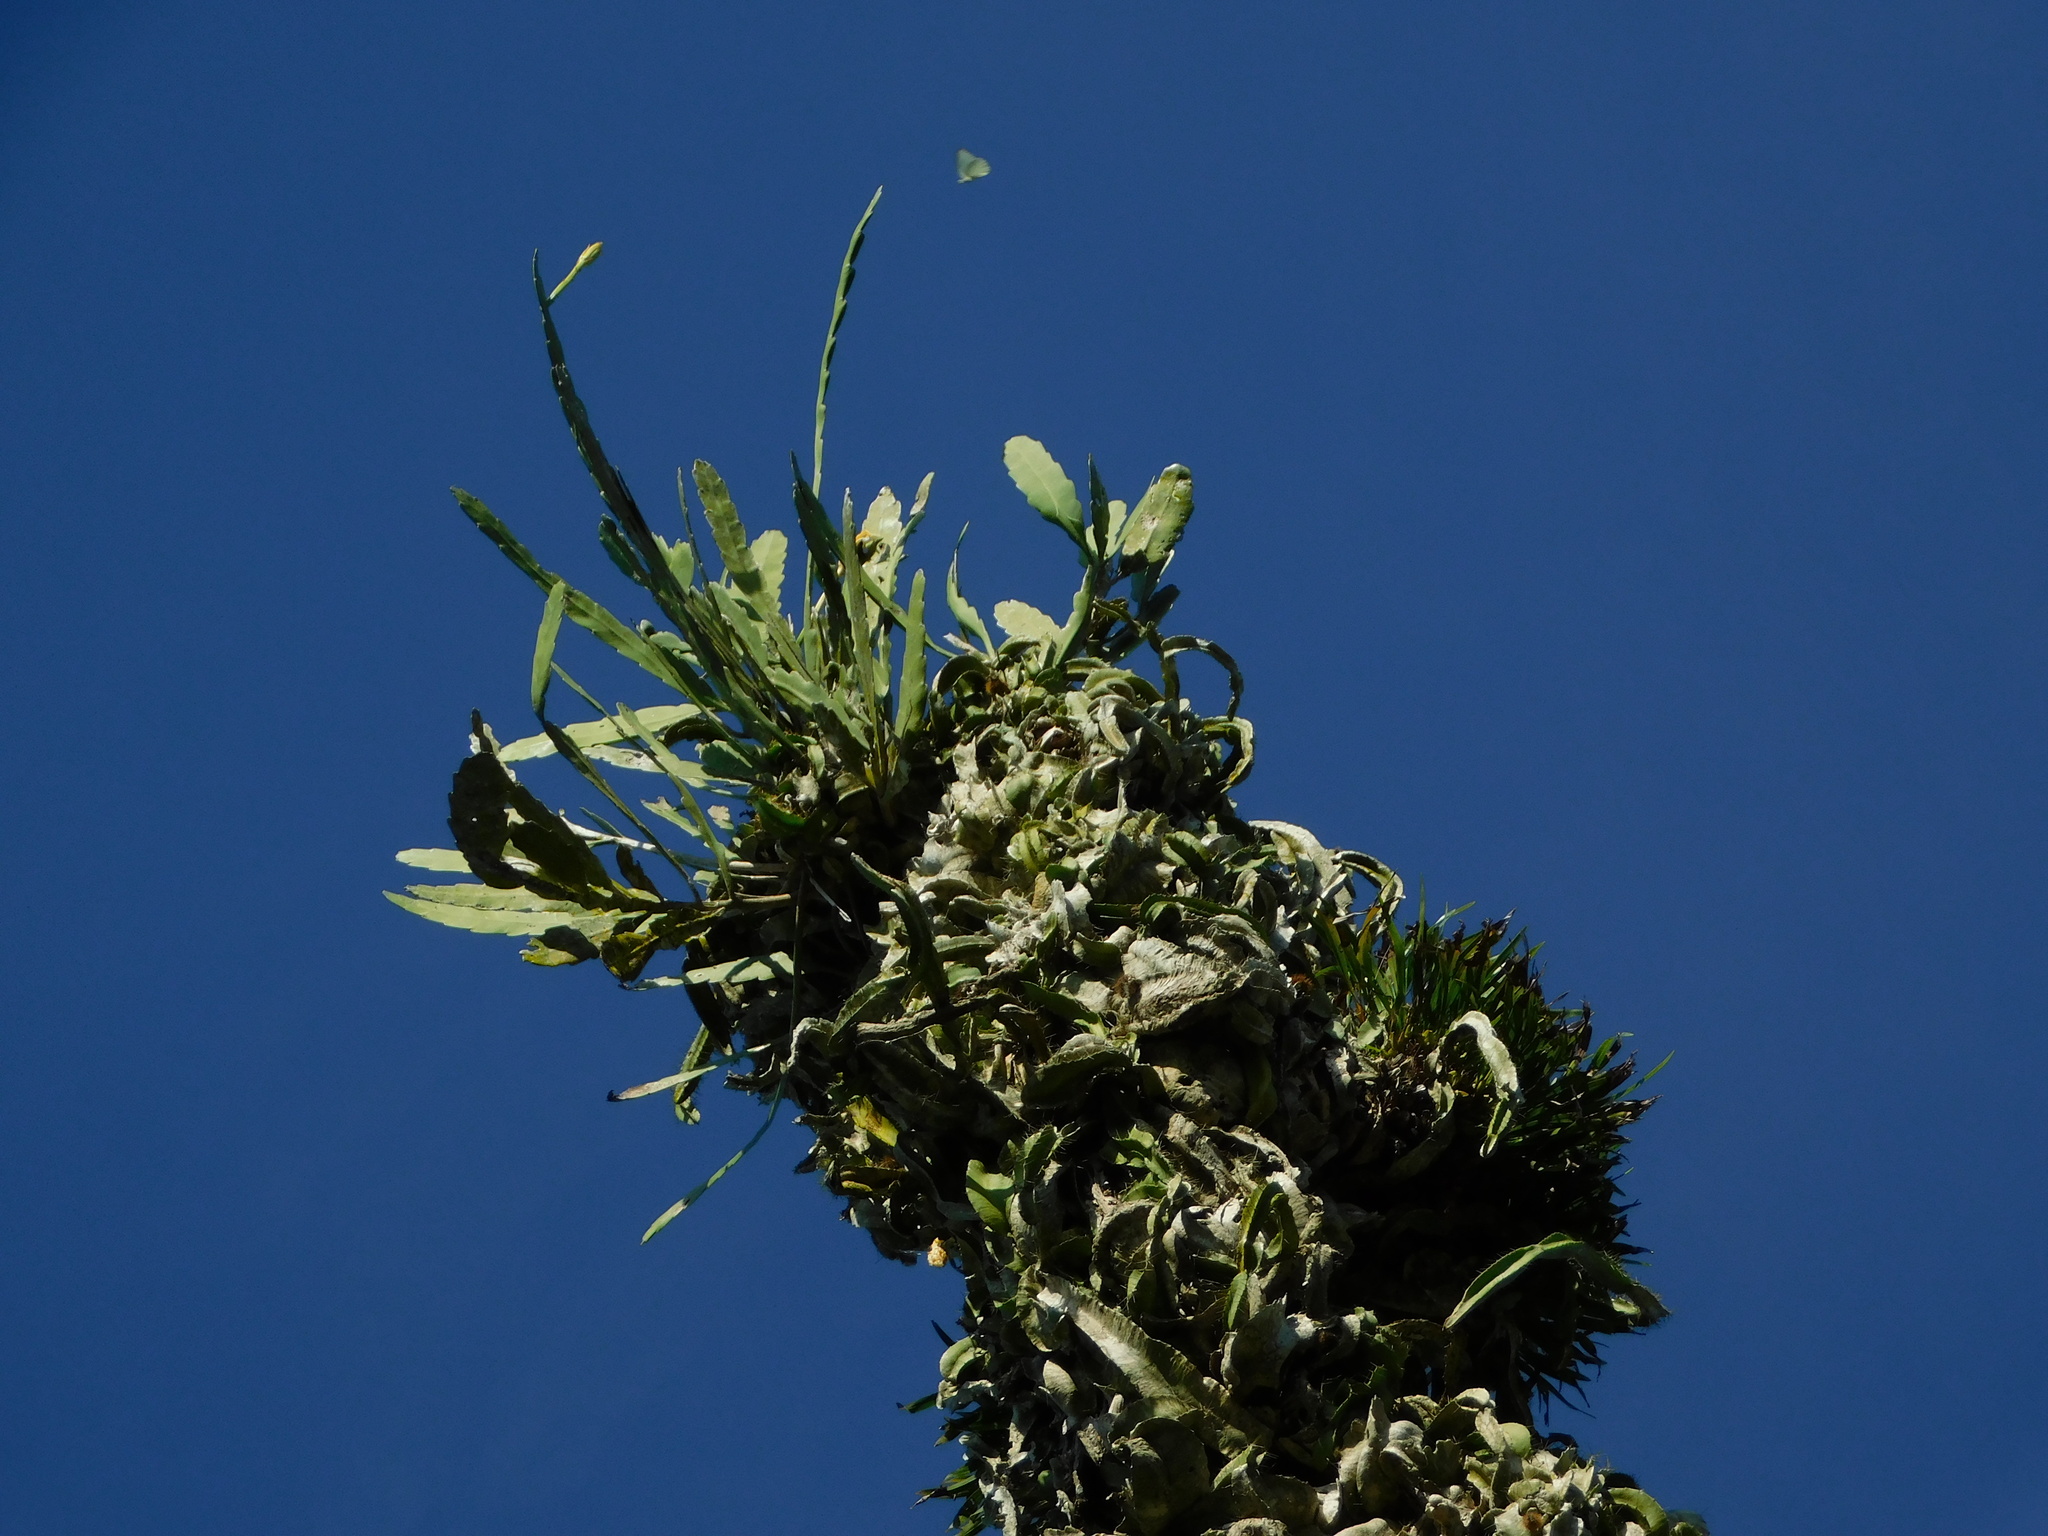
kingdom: Plantae
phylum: Tracheophyta
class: Magnoliopsida
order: Caryophyllales
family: Cactaceae
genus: Epiphyllum
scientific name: Epiphyllum hookeri
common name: Climbing cactus
